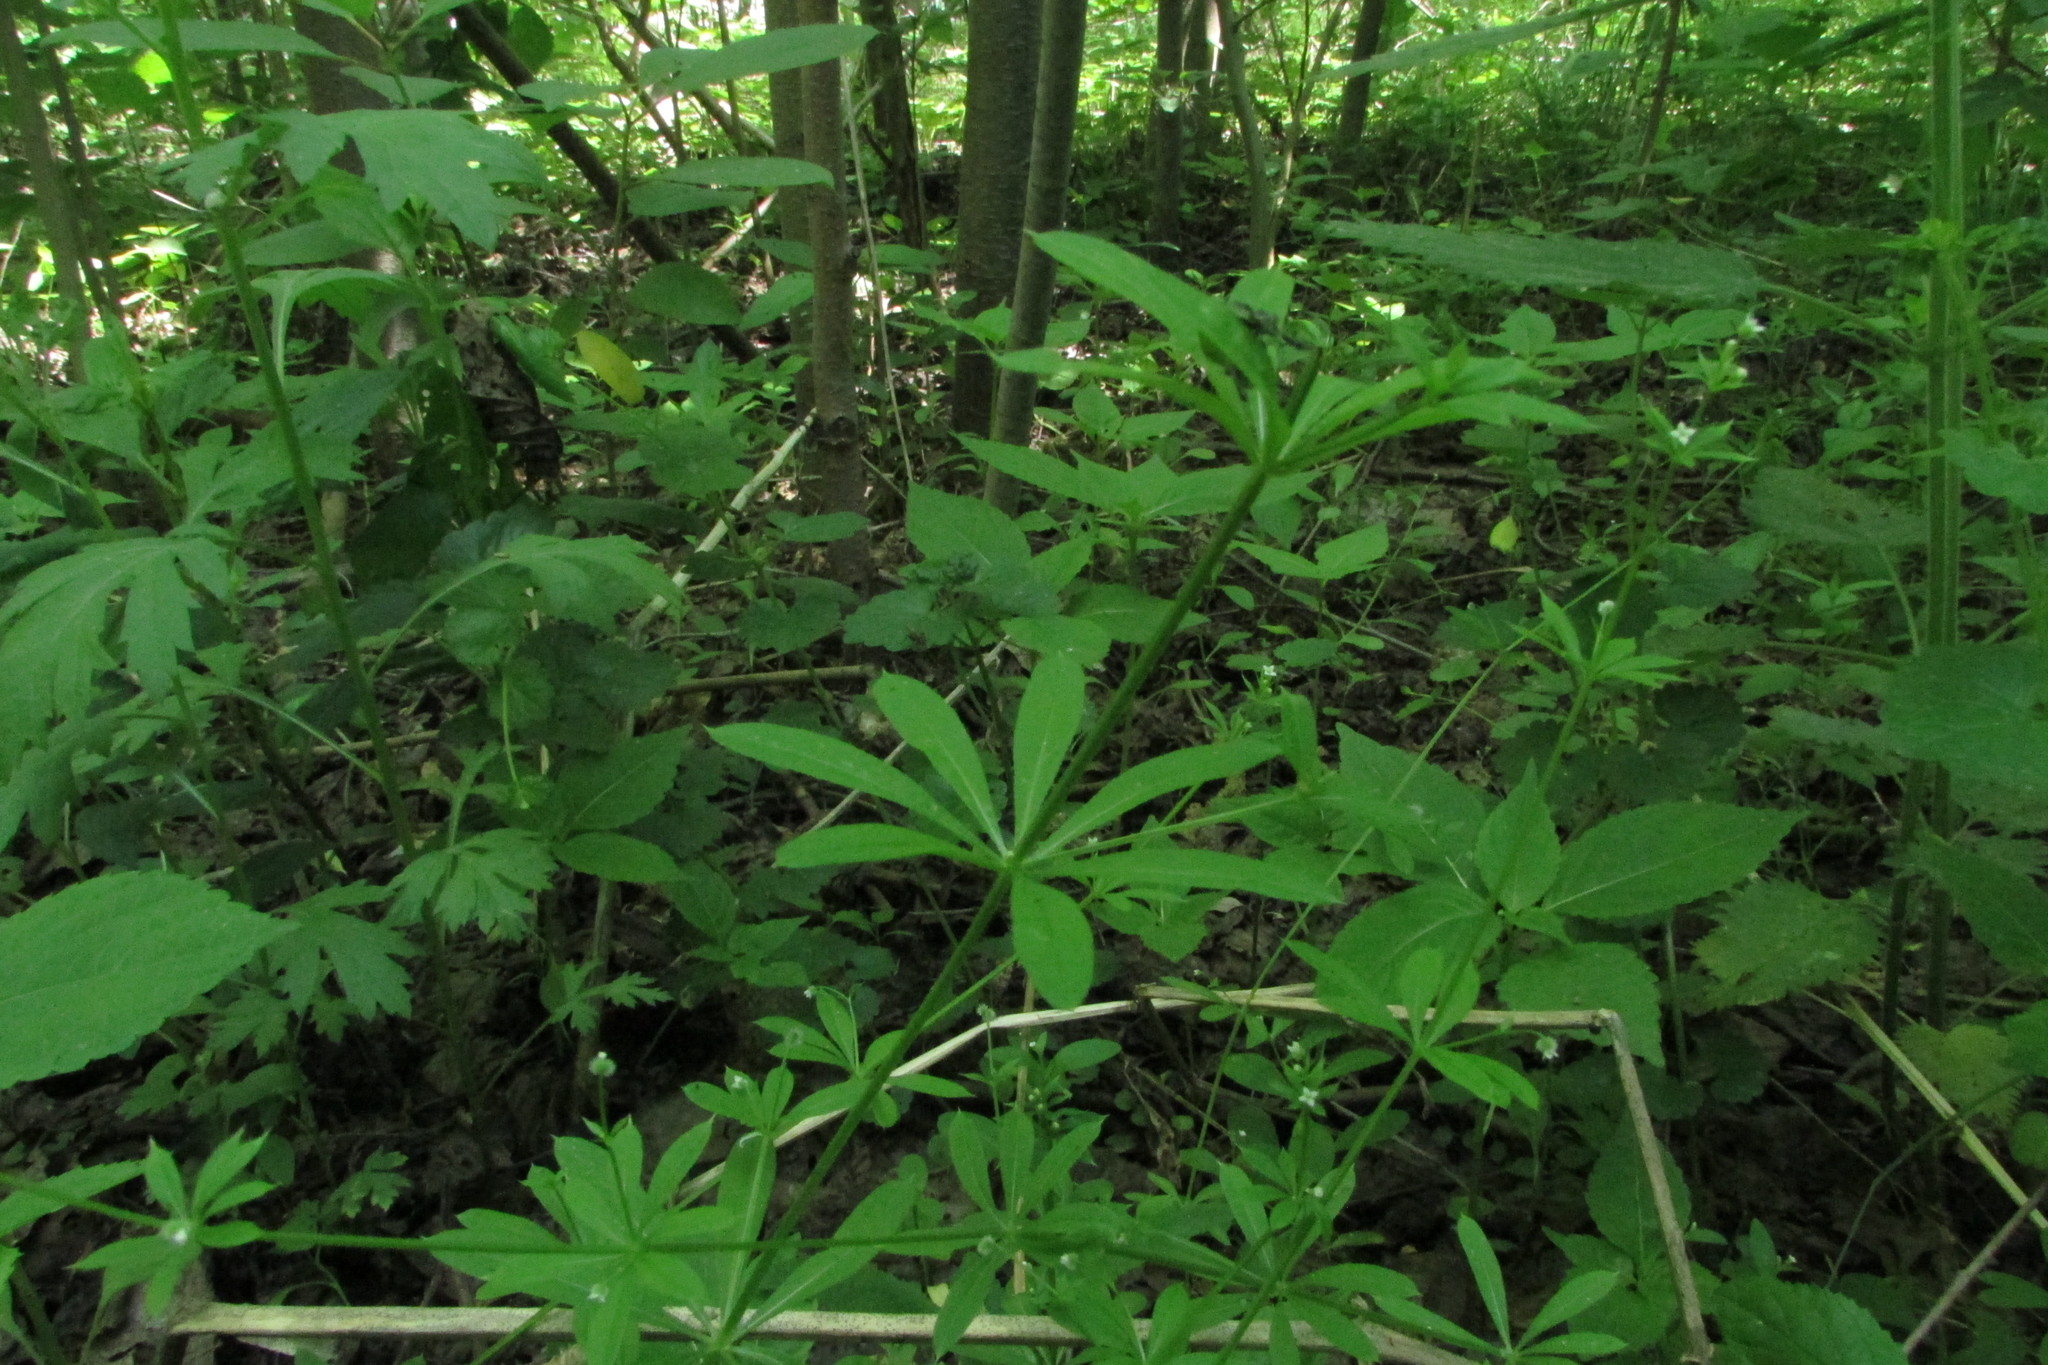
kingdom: Plantae
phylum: Tracheophyta
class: Magnoliopsida
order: Gentianales
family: Rubiaceae
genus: Galium
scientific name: Galium aparine
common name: Cleavers
